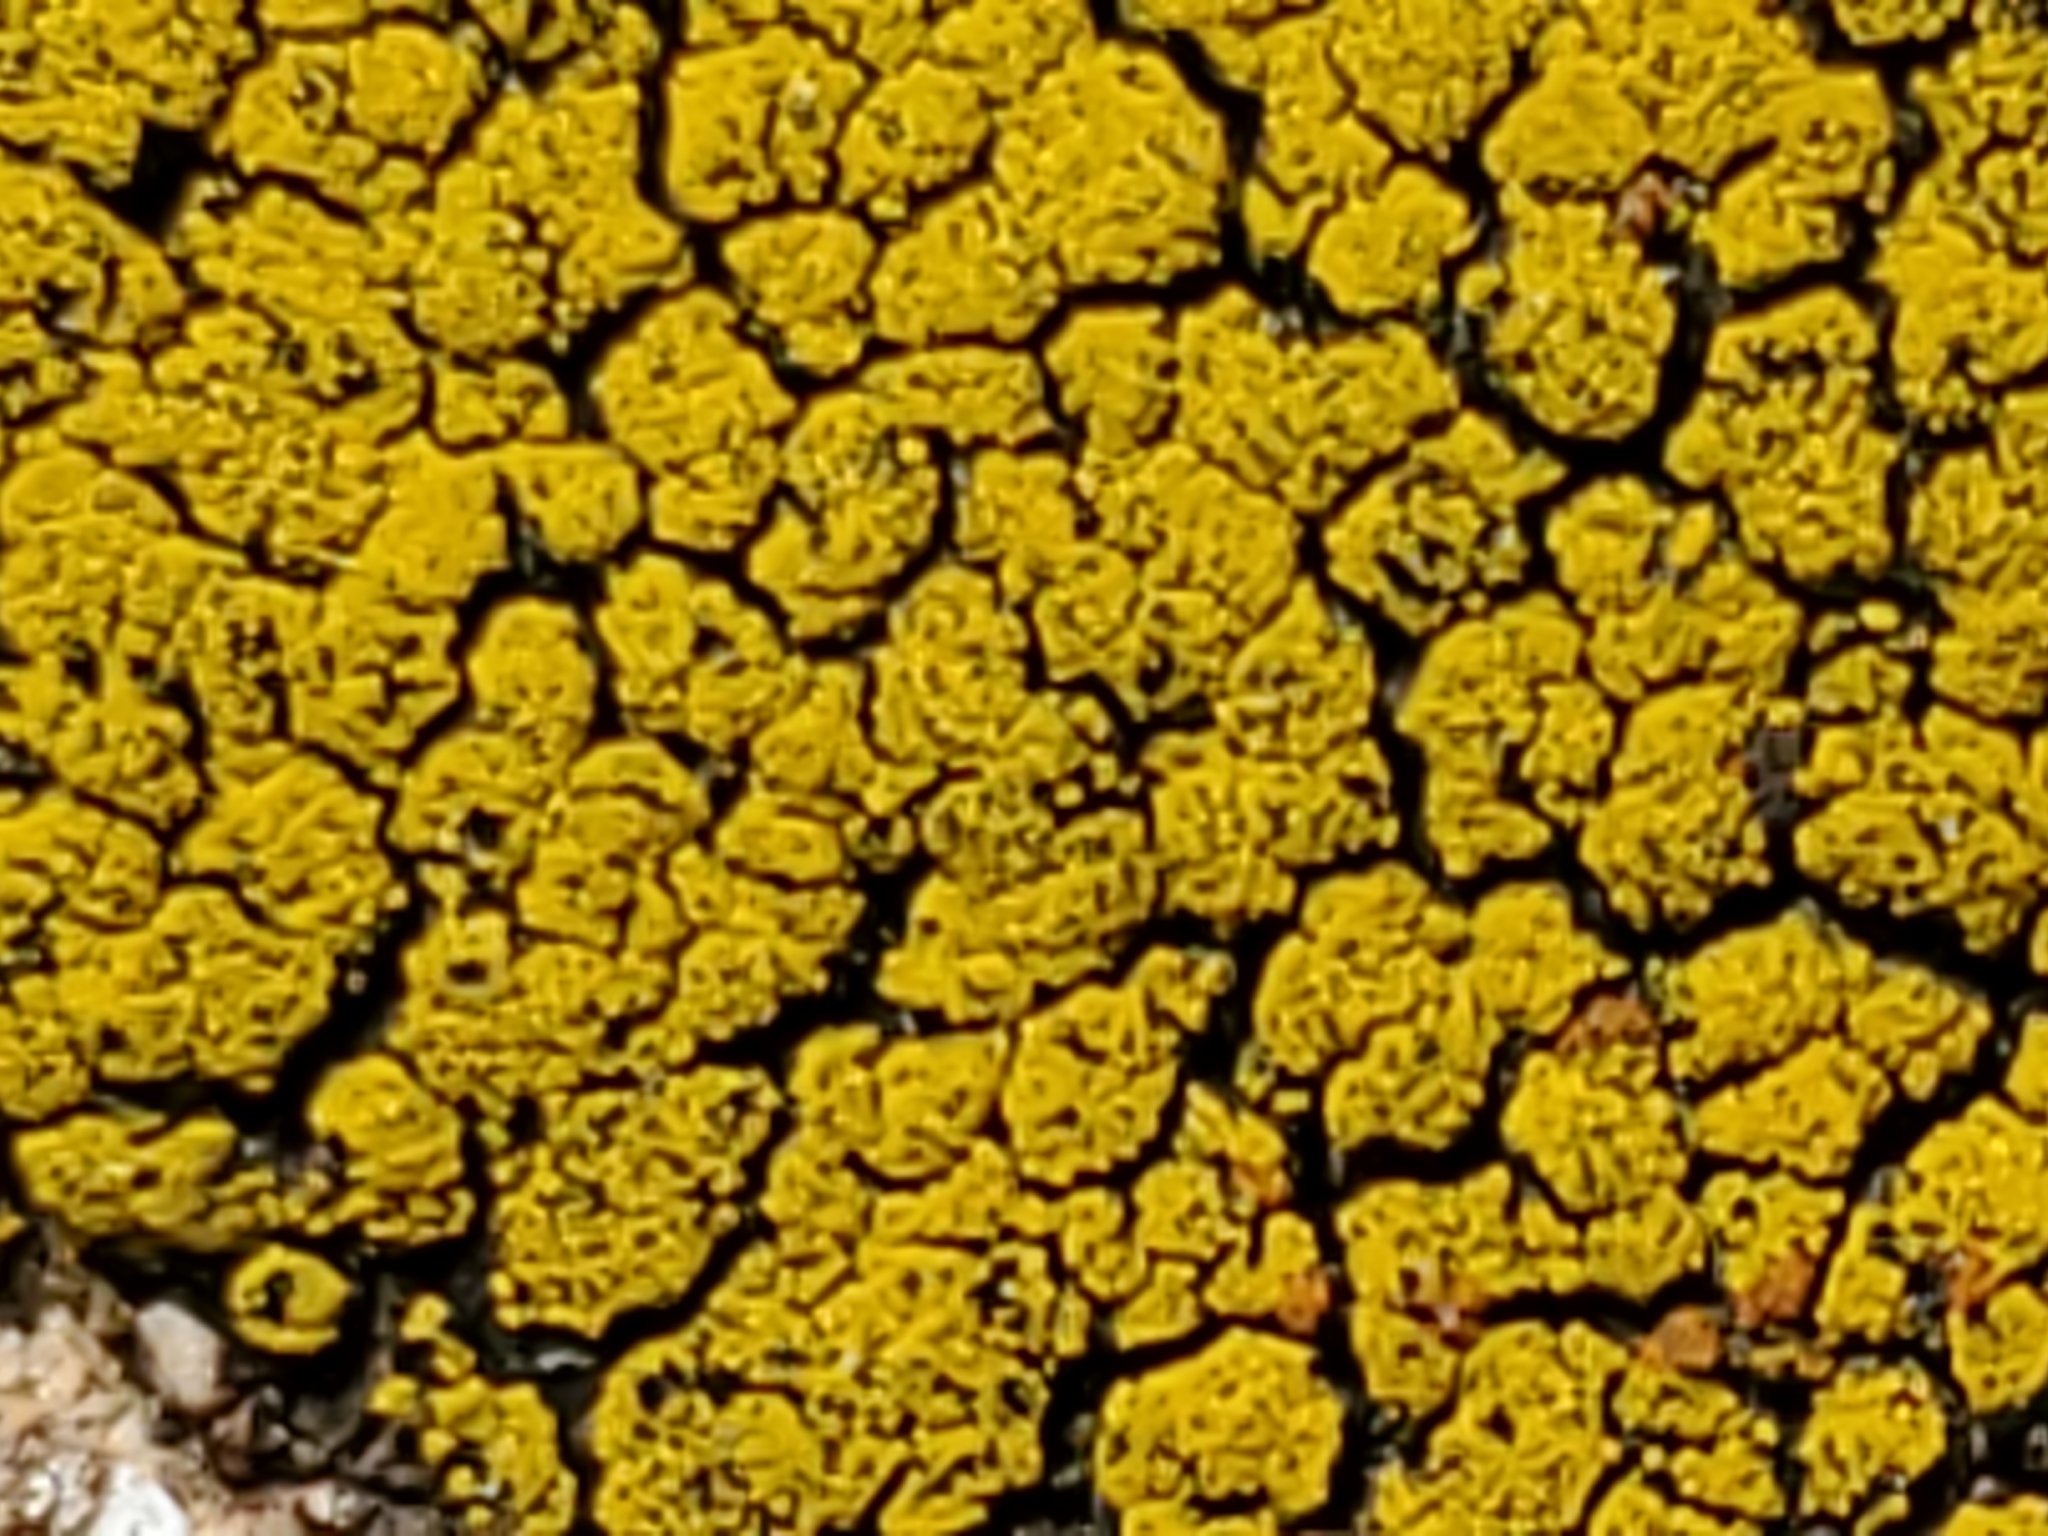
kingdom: Fungi
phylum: Ascomycota
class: Candelariomycetes
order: Candelariales
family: Candelariaceae
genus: Candelariella
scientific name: Candelariella rosulans
